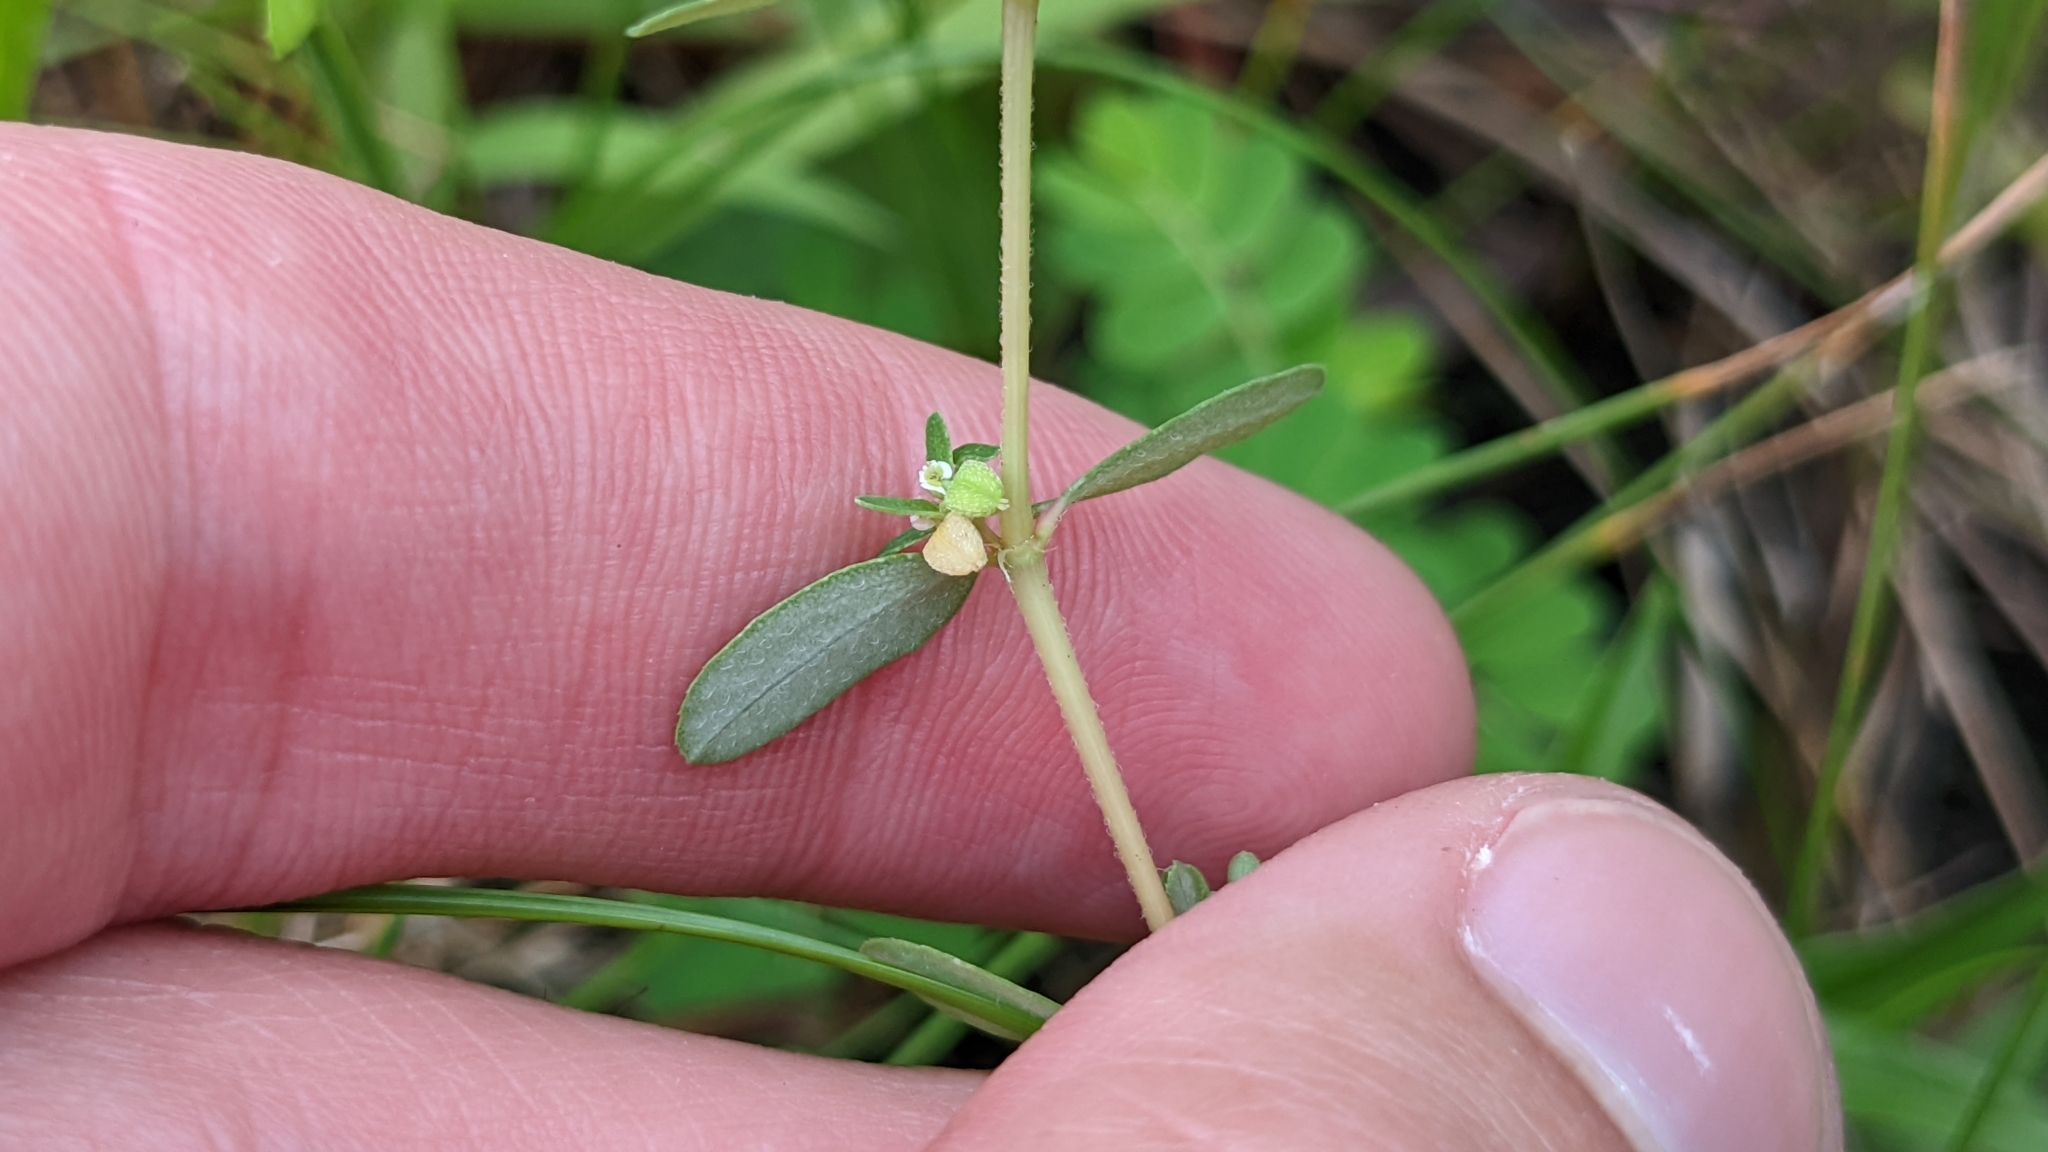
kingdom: Plantae
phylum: Tracheophyta
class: Magnoliopsida
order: Malpighiales
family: Euphorbiaceae
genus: Euphorbia
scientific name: Euphorbia maculata
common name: Spotted spurge
